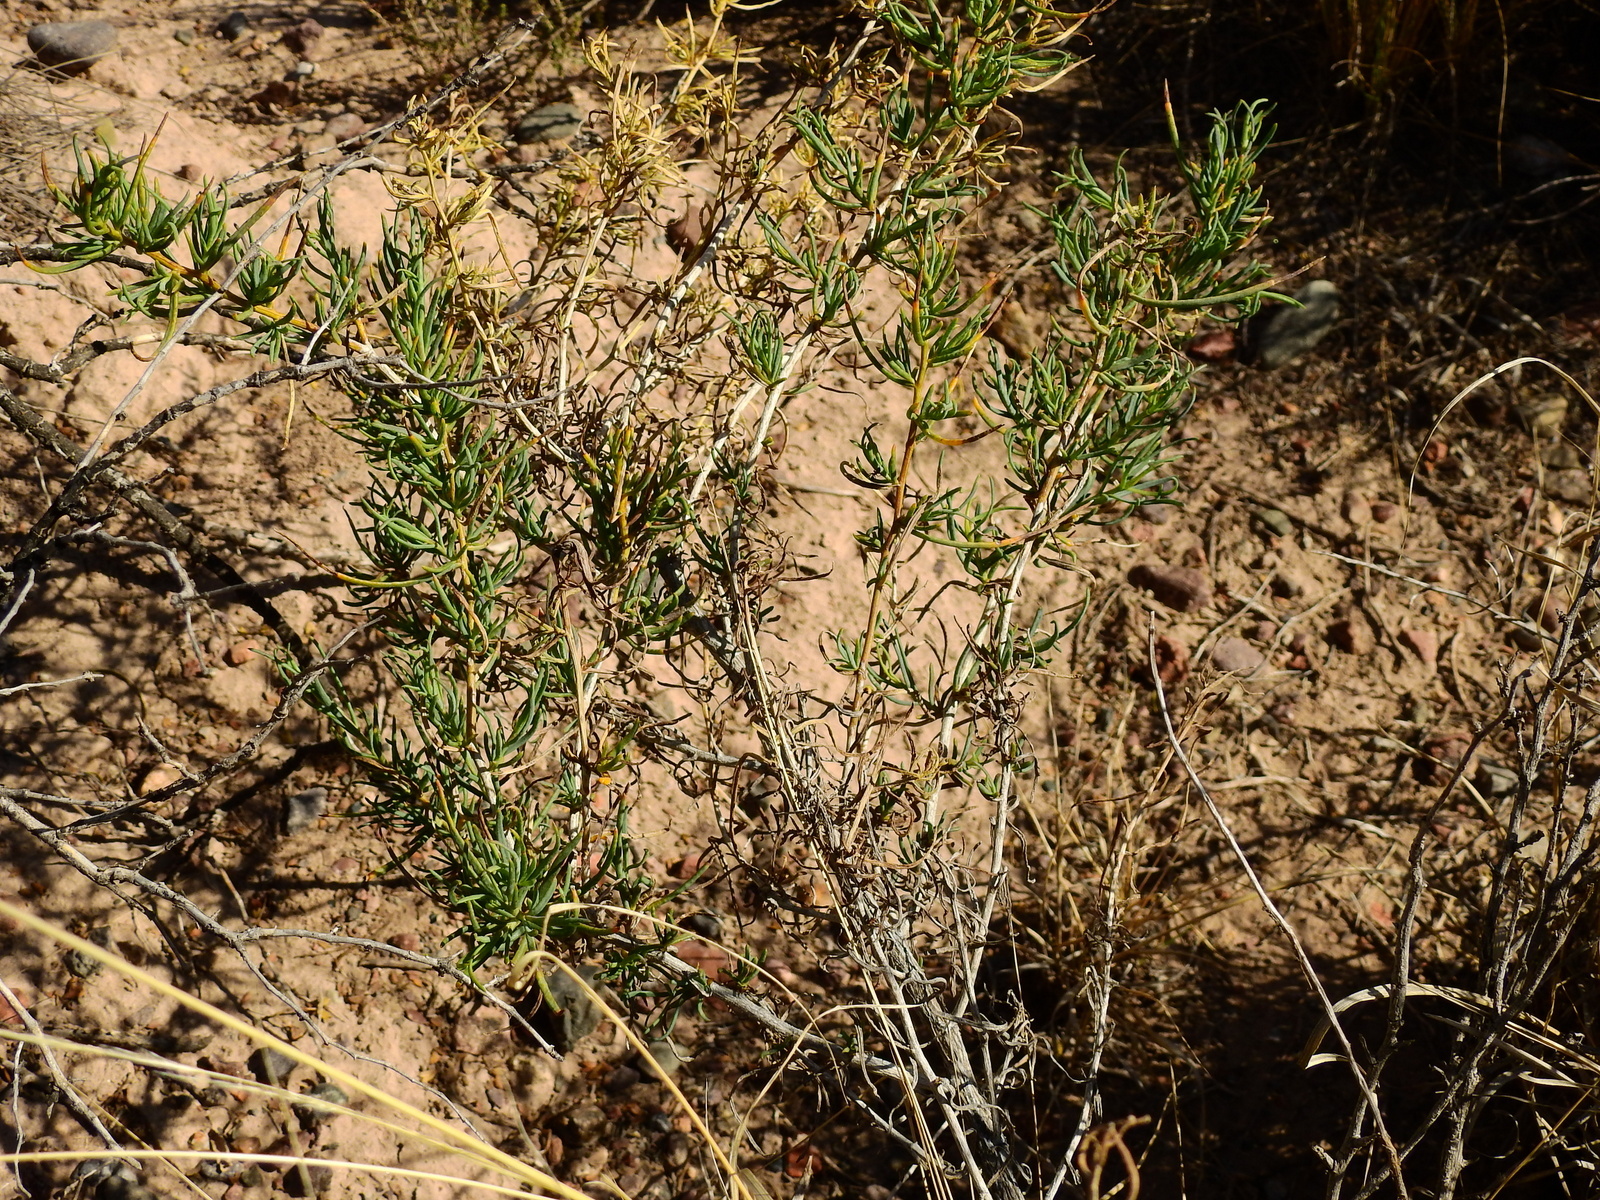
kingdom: Plantae
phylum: Tracheophyta
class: Magnoliopsida
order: Asterales
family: Asteraceae
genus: Senecio
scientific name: Senecio subulatus
